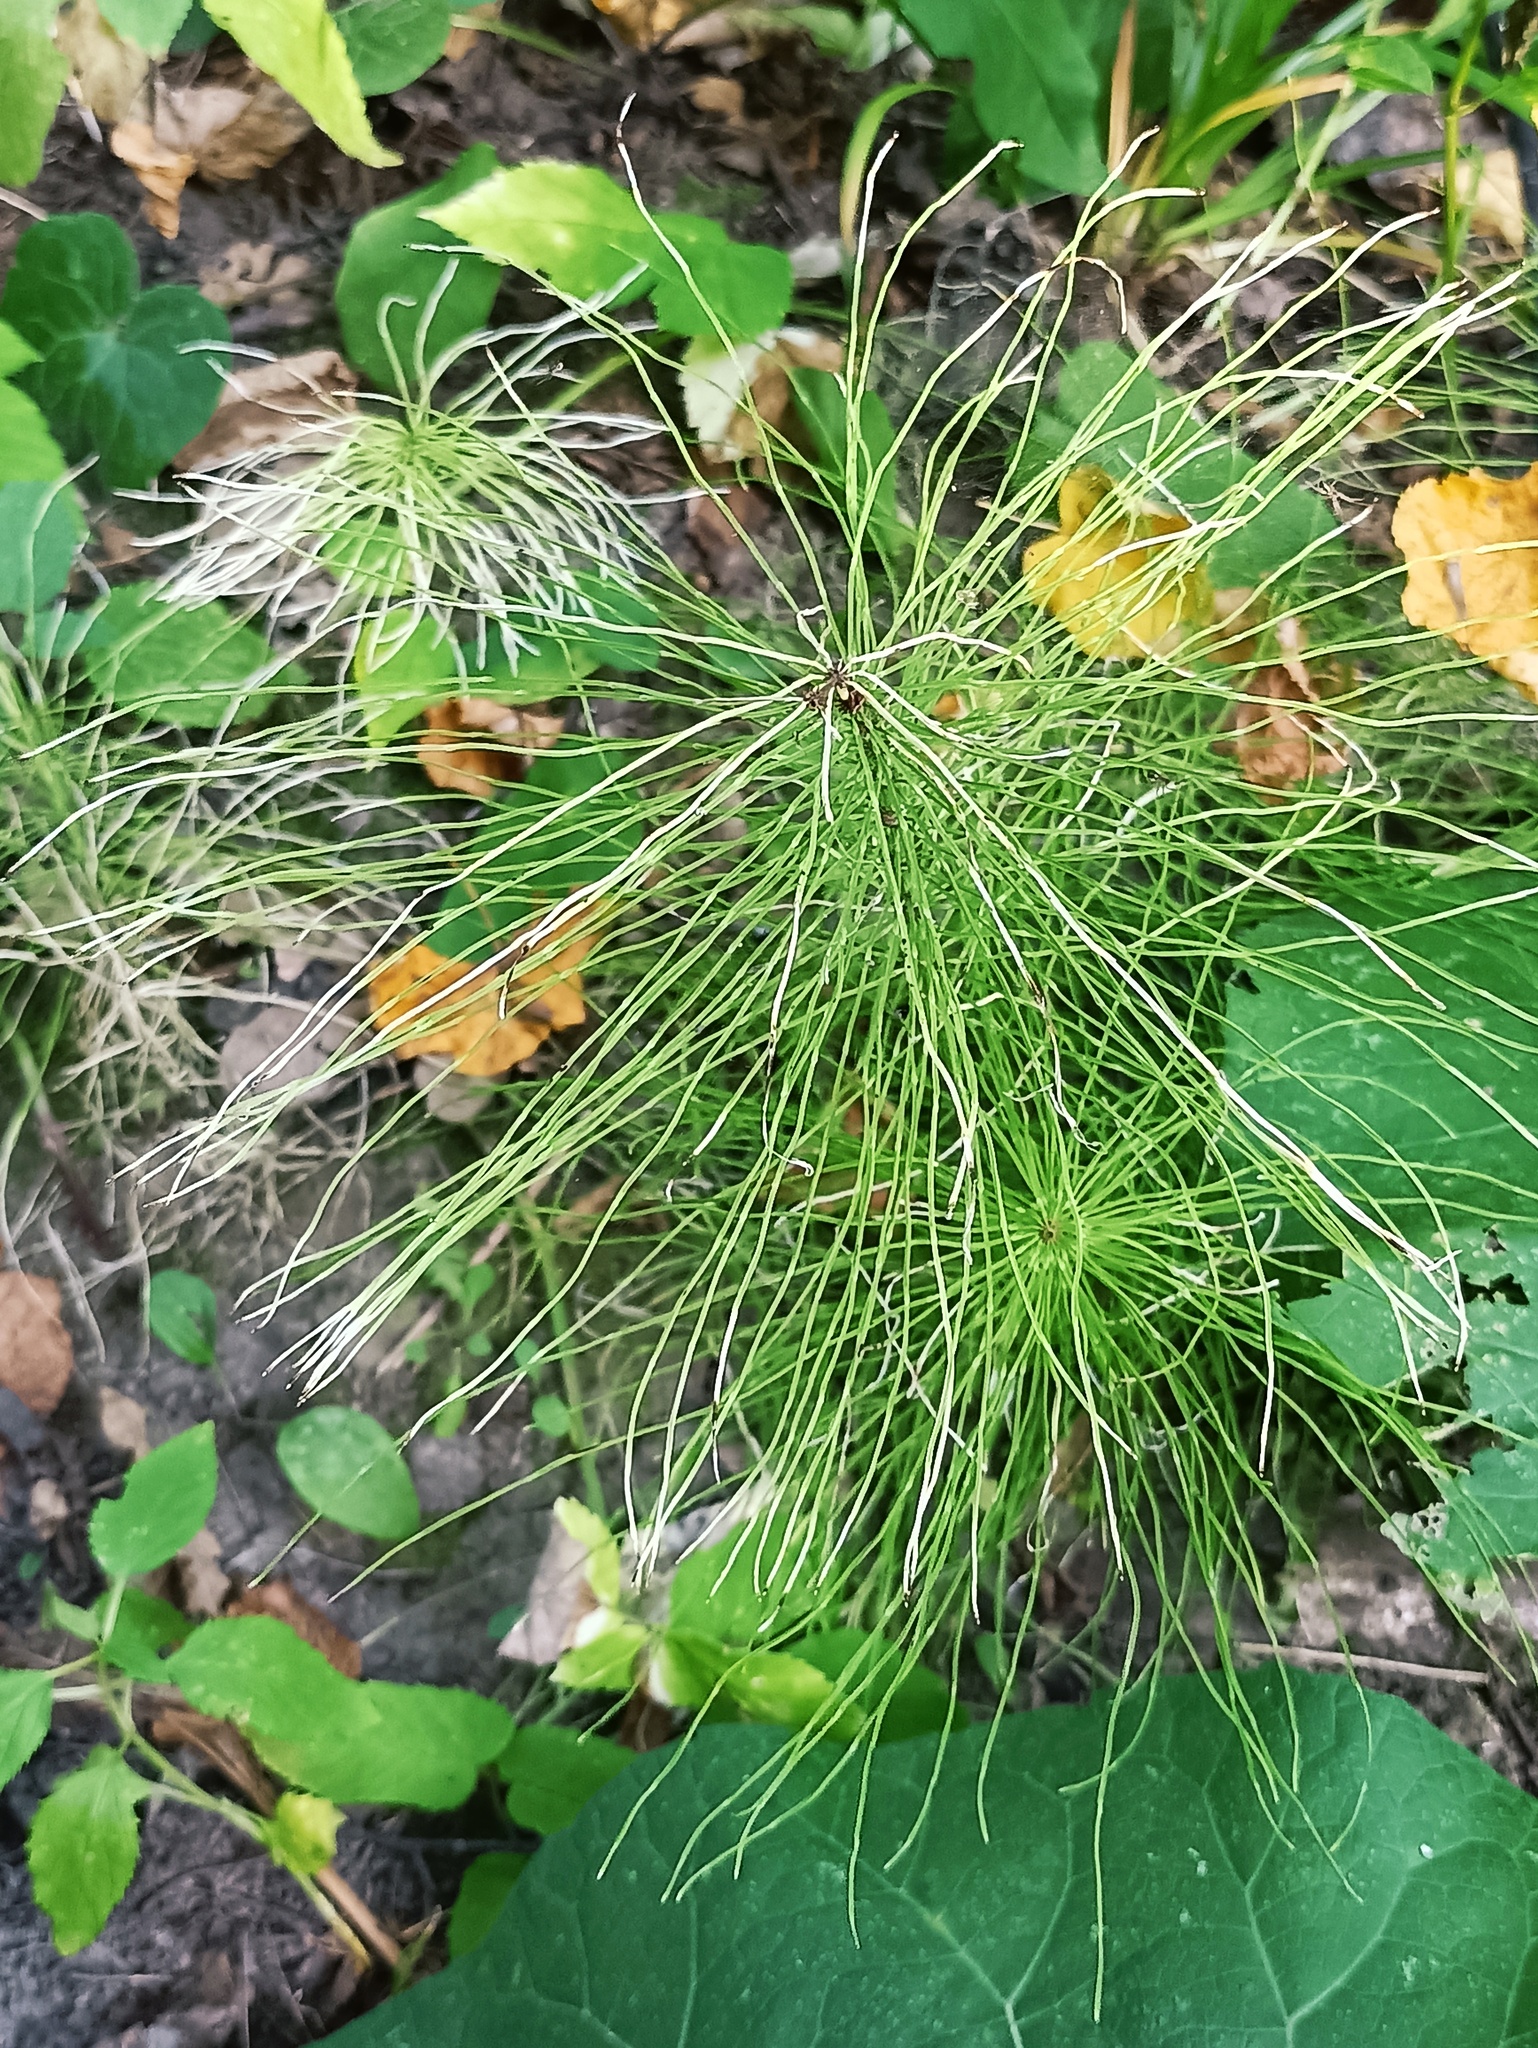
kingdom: Plantae
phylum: Tracheophyta
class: Polypodiopsida
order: Equisetales
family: Equisetaceae
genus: Equisetum
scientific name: Equisetum pratense
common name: Meadow horsetail
